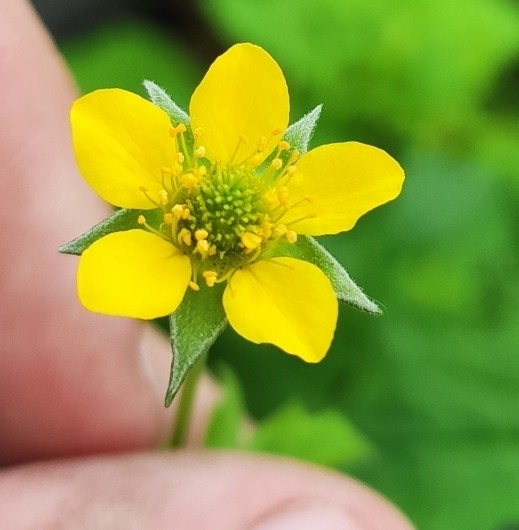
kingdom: Plantae
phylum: Tracheophyta
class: Magnoliopsida
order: Rosales
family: Rosaceae
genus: Geum
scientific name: Geum urbanum
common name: Wood avens
